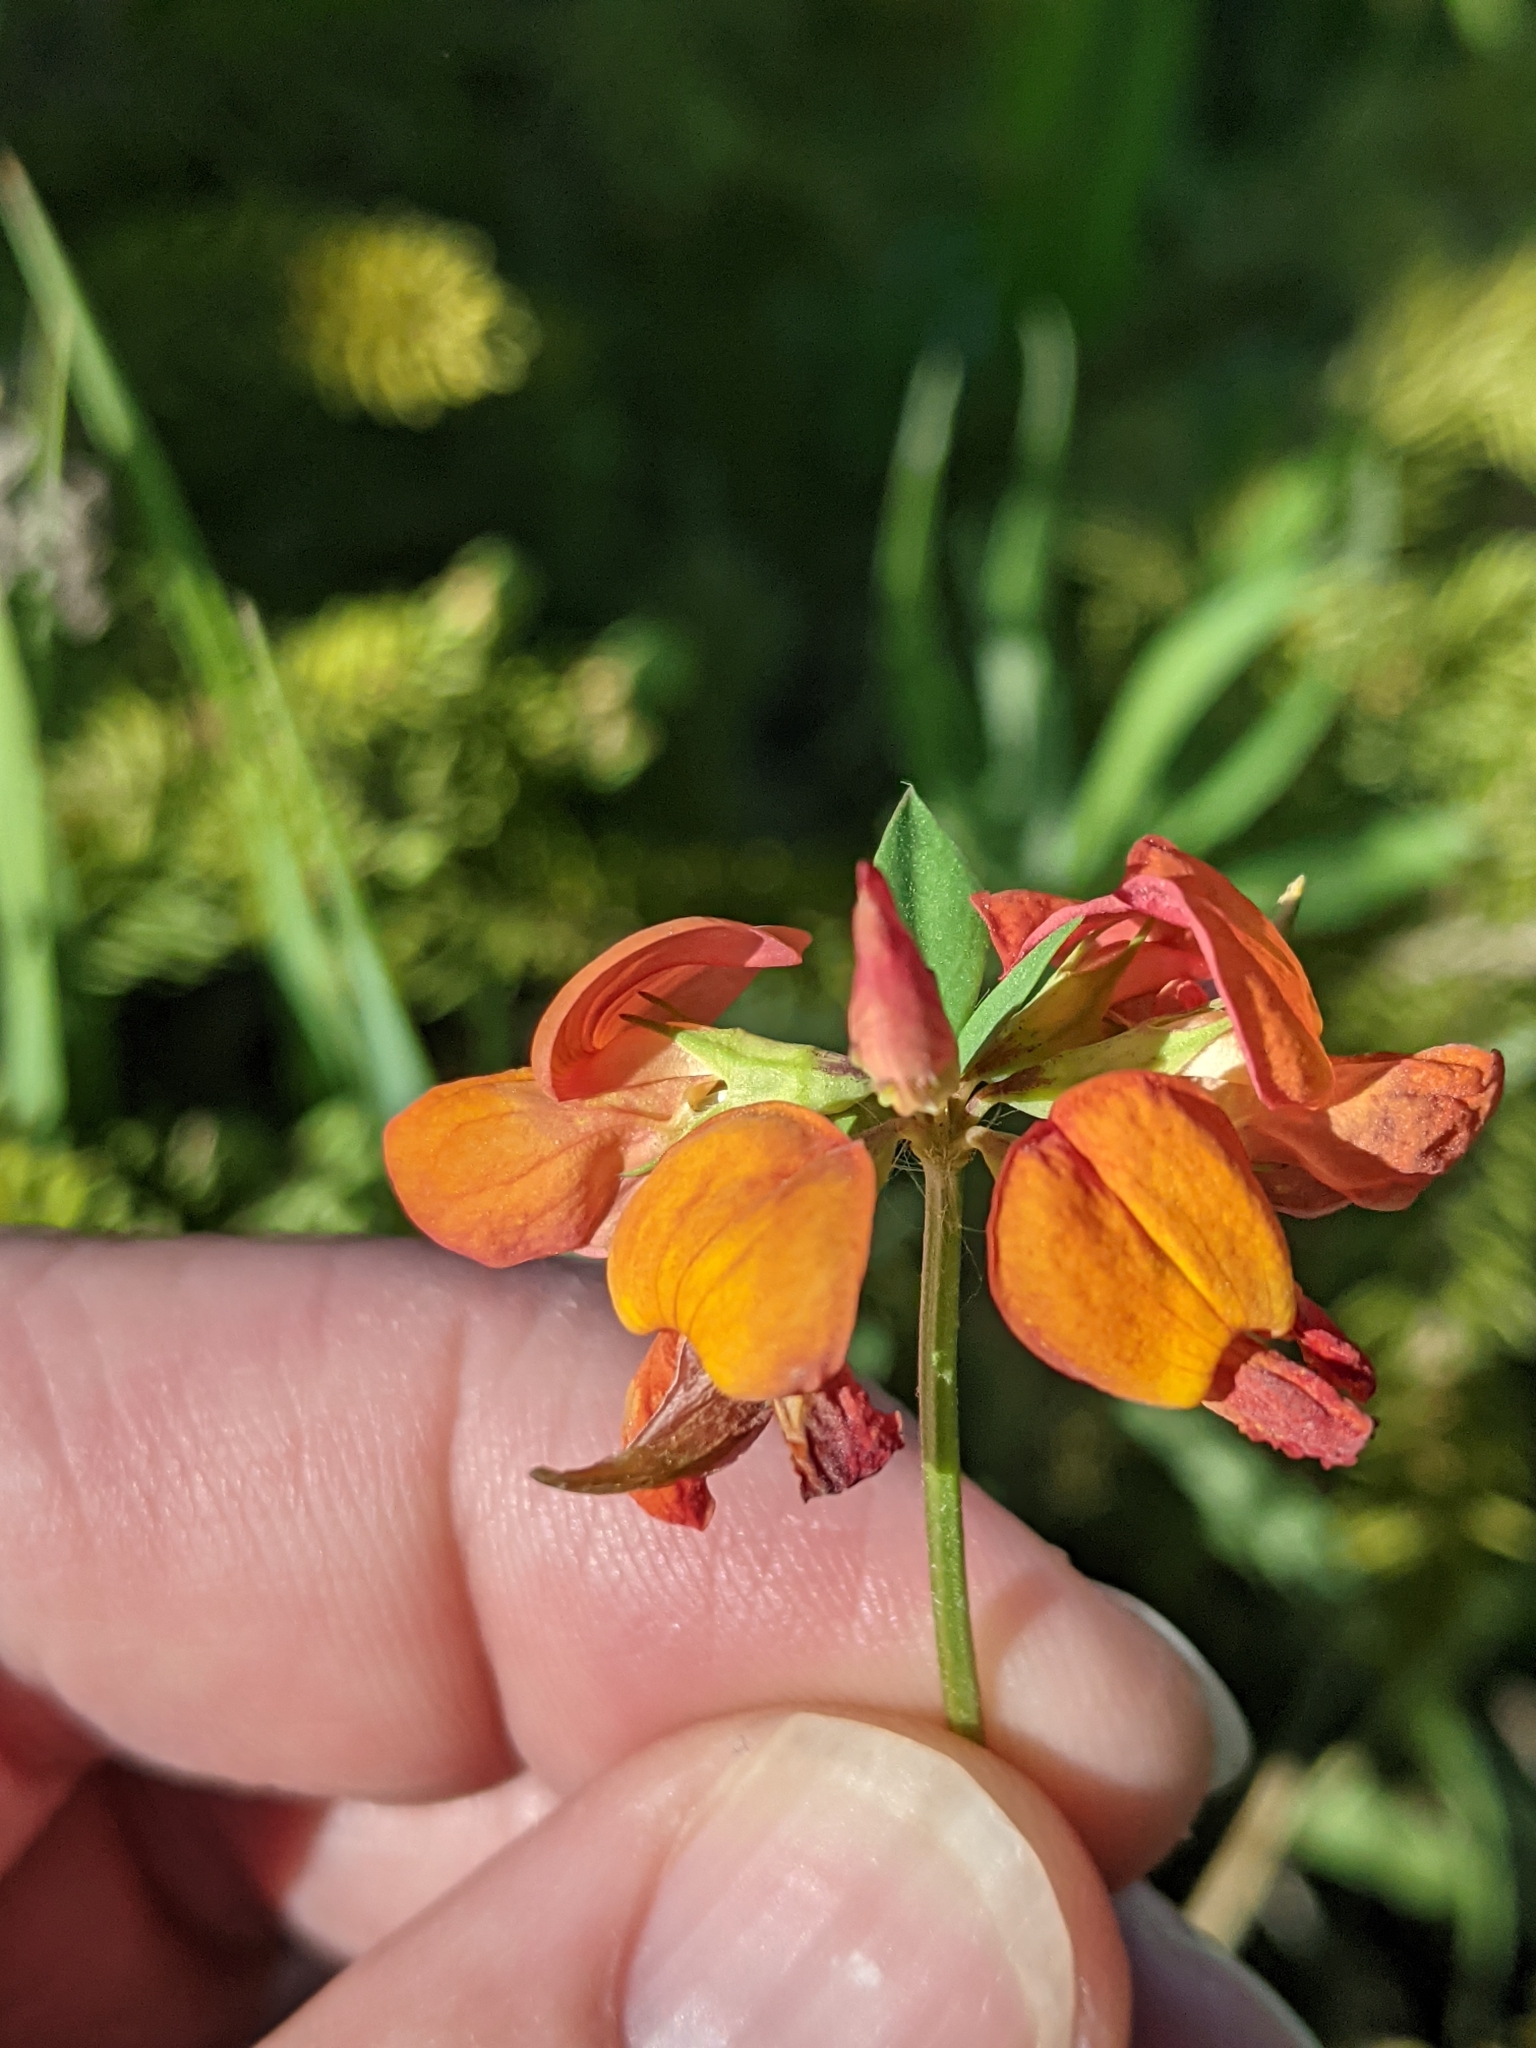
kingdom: Plantae
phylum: Tracheophyta
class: Magnoliopsida
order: Fabales
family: Fabaceae
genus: Lotus
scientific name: Lotus corniculatus
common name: Common bird's-foot-trefoil
